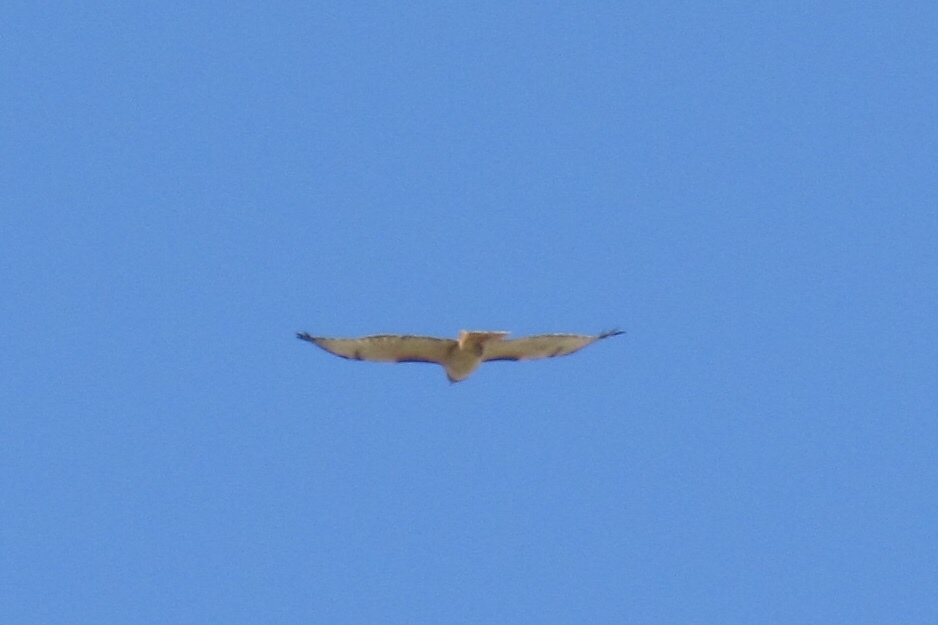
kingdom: Animalia
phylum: Chordata
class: Aves
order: Accipitriformes
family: Accipitridae
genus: Buteo
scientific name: Buteo jamaicensis
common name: Red-tailed hawk
